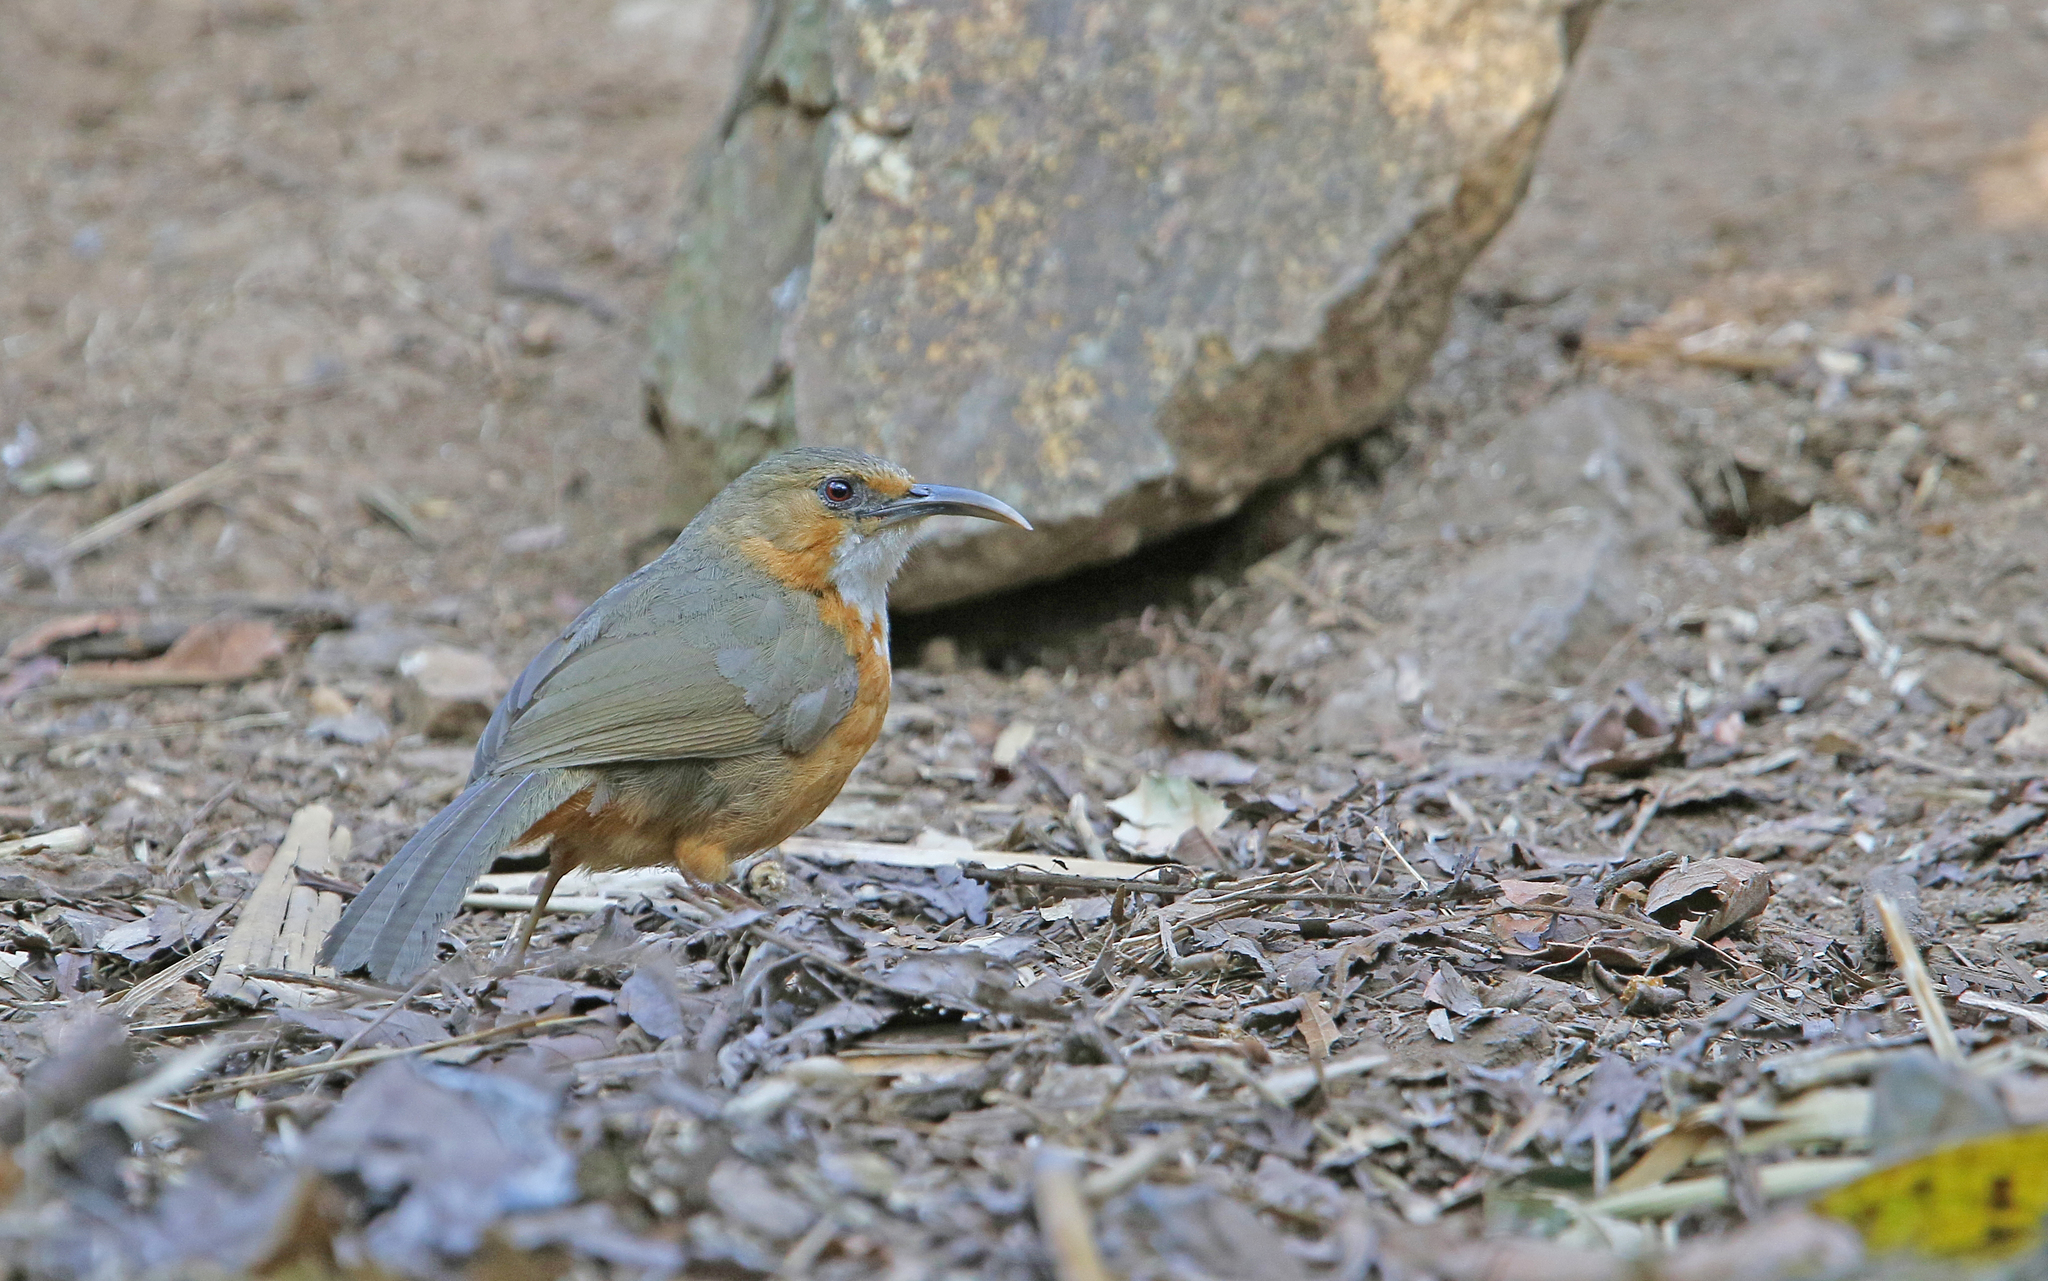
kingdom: Animalia
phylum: Chordata
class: Aves
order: Passeriformes
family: Timaliidae
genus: Pomatorhinus
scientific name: Pomatorhinus erythrogenys
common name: Rusty-cheeked scimitar babbler
